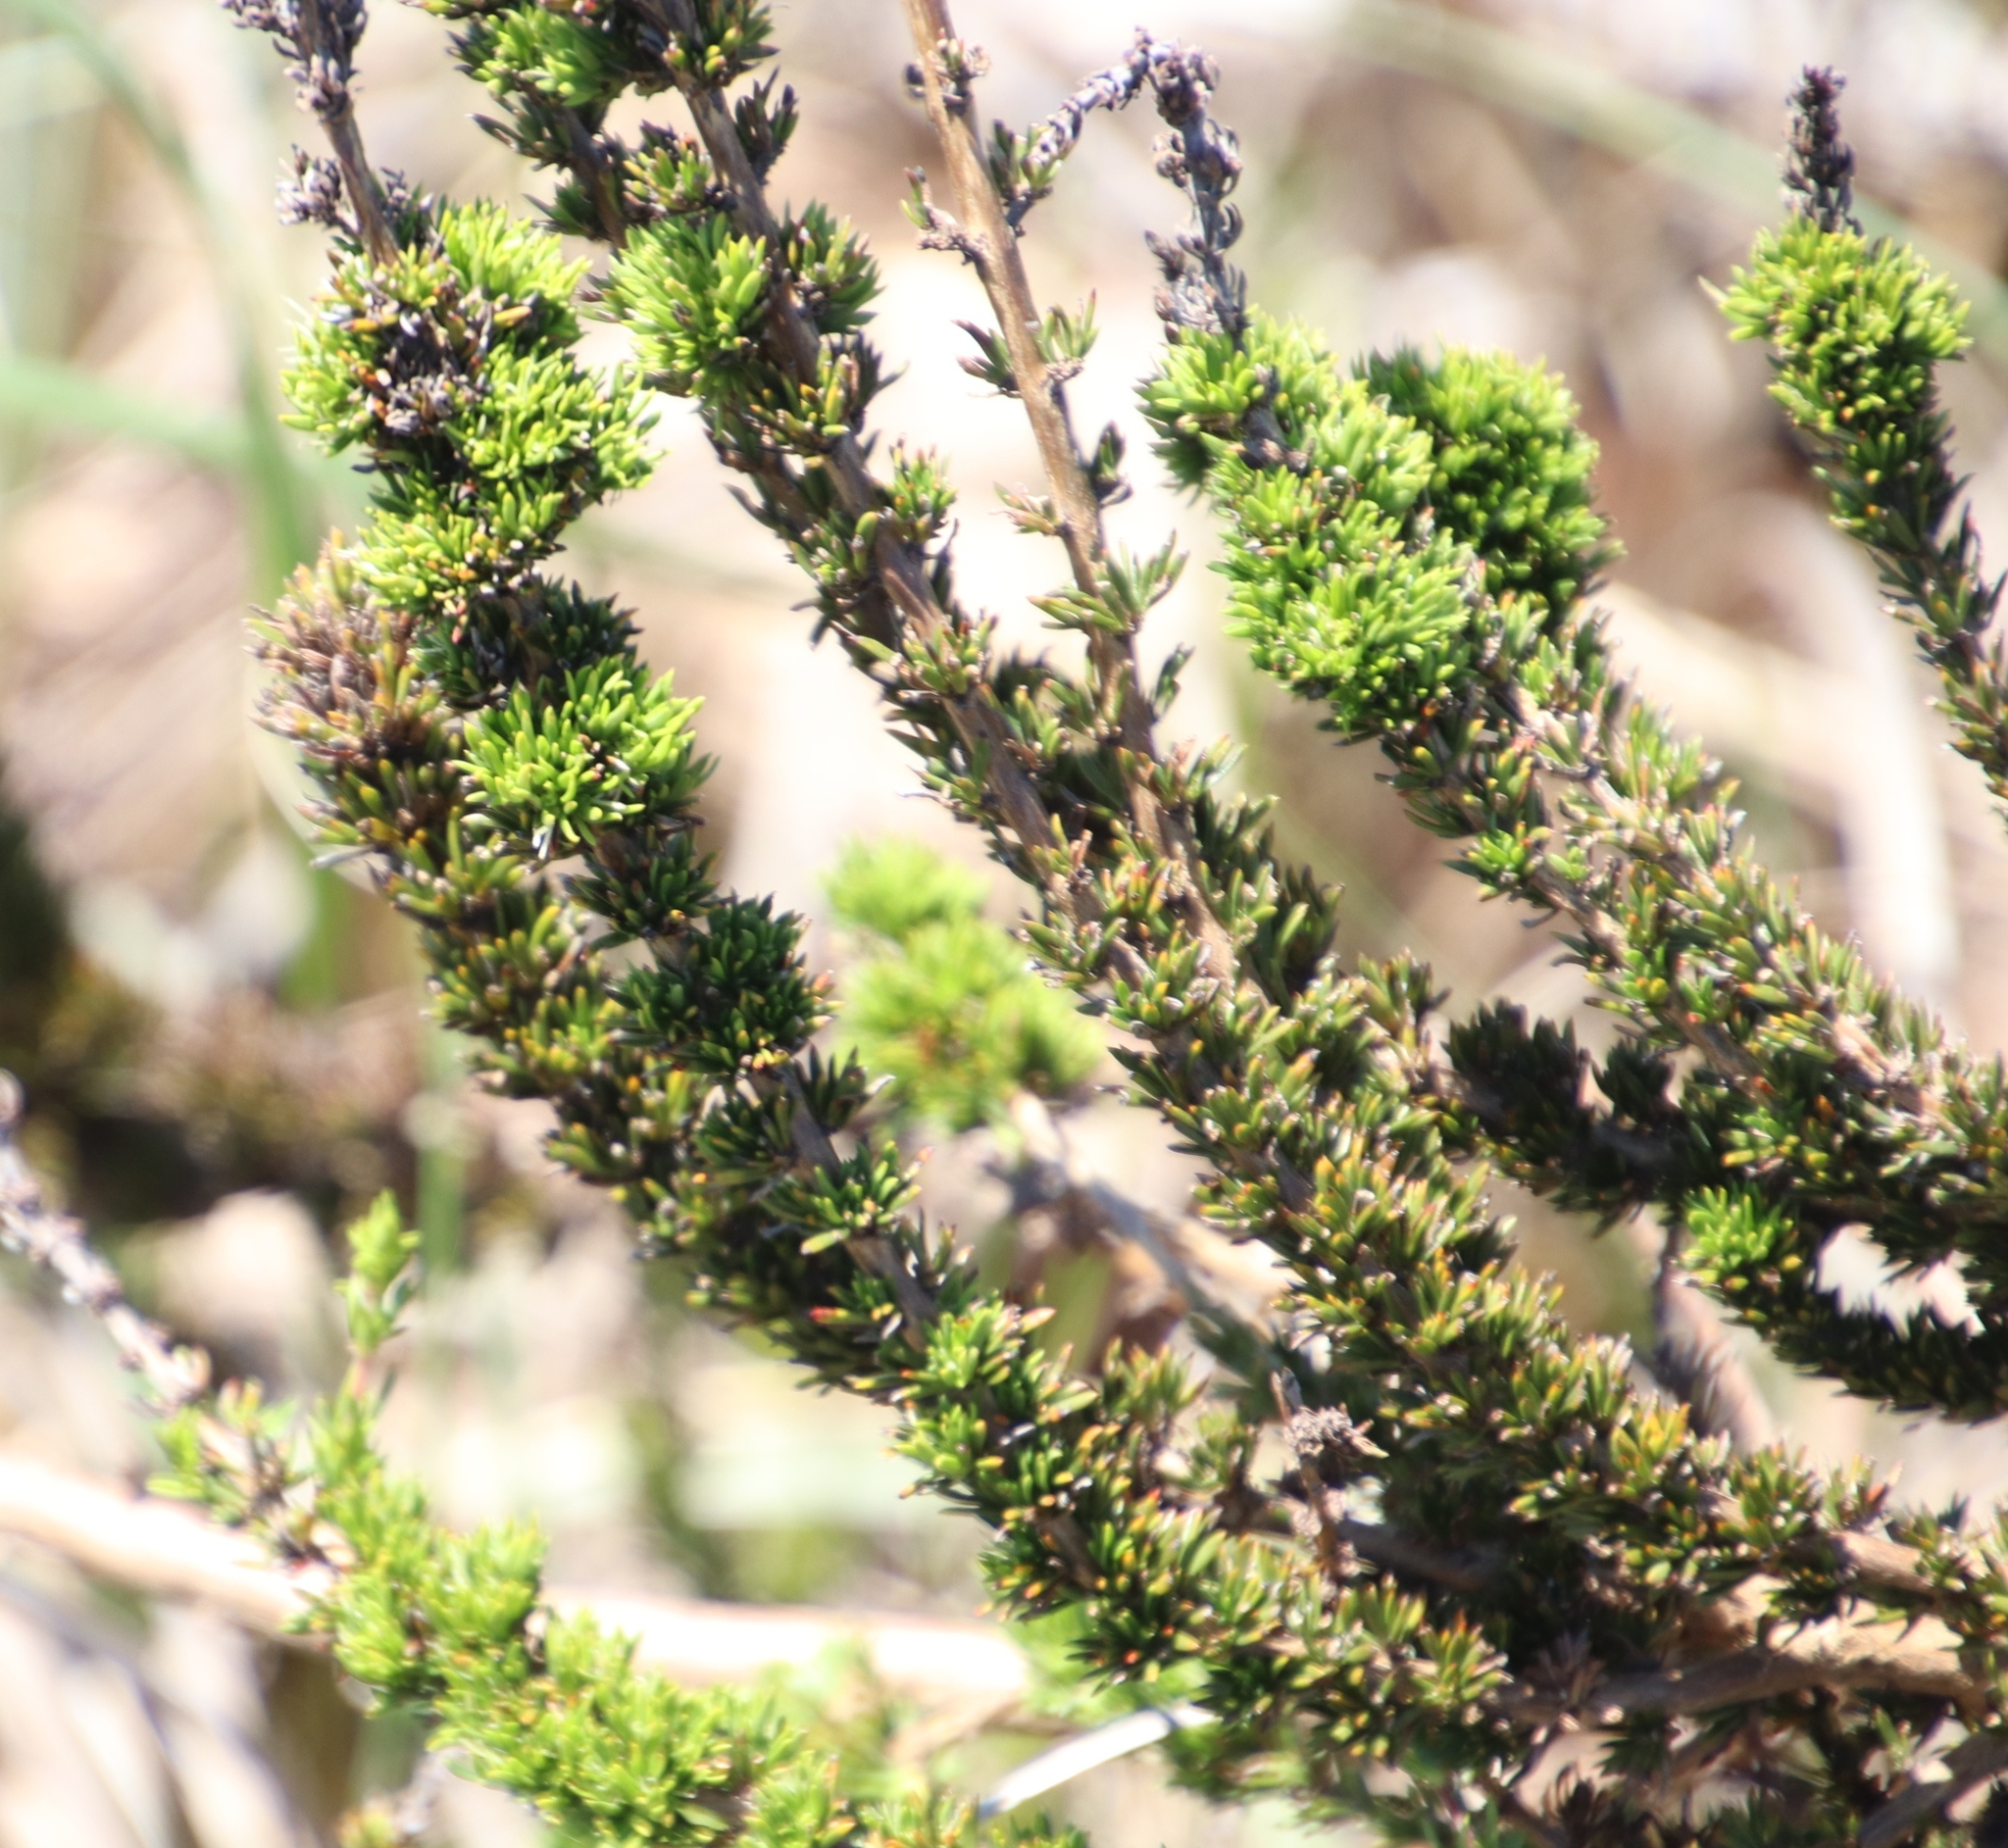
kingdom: Plantae
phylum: Tracheophyta
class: Magnoliopsida
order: Gentianales
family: Rubiaceae
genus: Anthospermum
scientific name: Anthospermum aethiopicum
